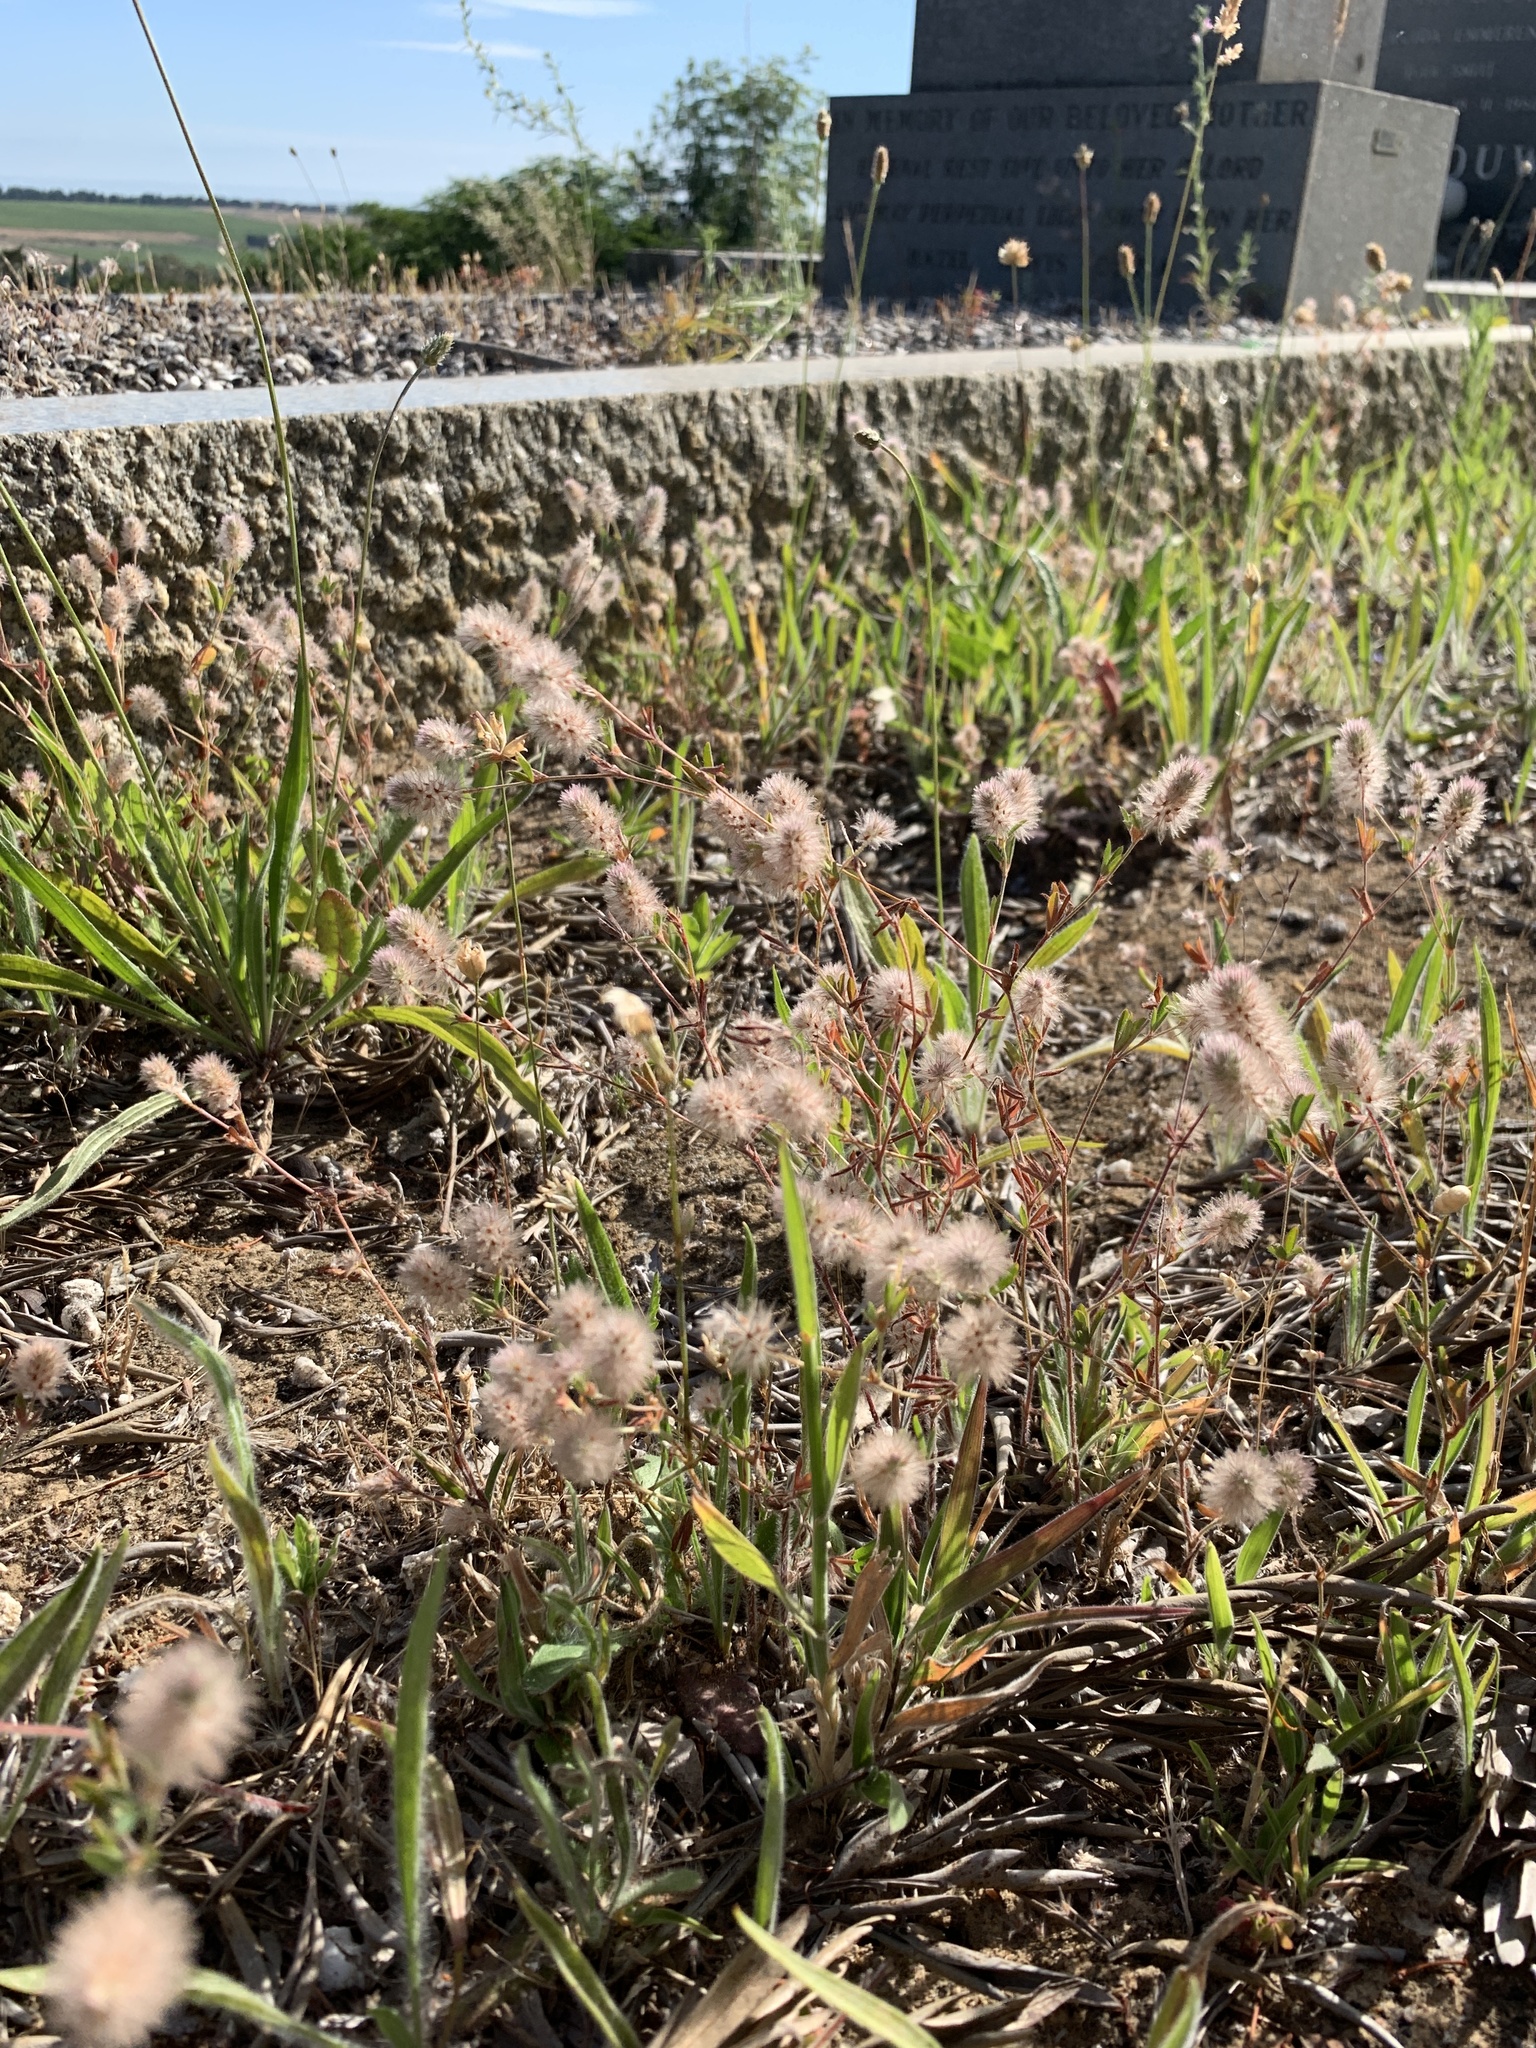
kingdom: Plantae
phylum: Tracheophyta
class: Magnoliopsida
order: Fabales
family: Fabaceae
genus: Trifolium
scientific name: Trifolium arvense
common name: Hare's-foot clover
